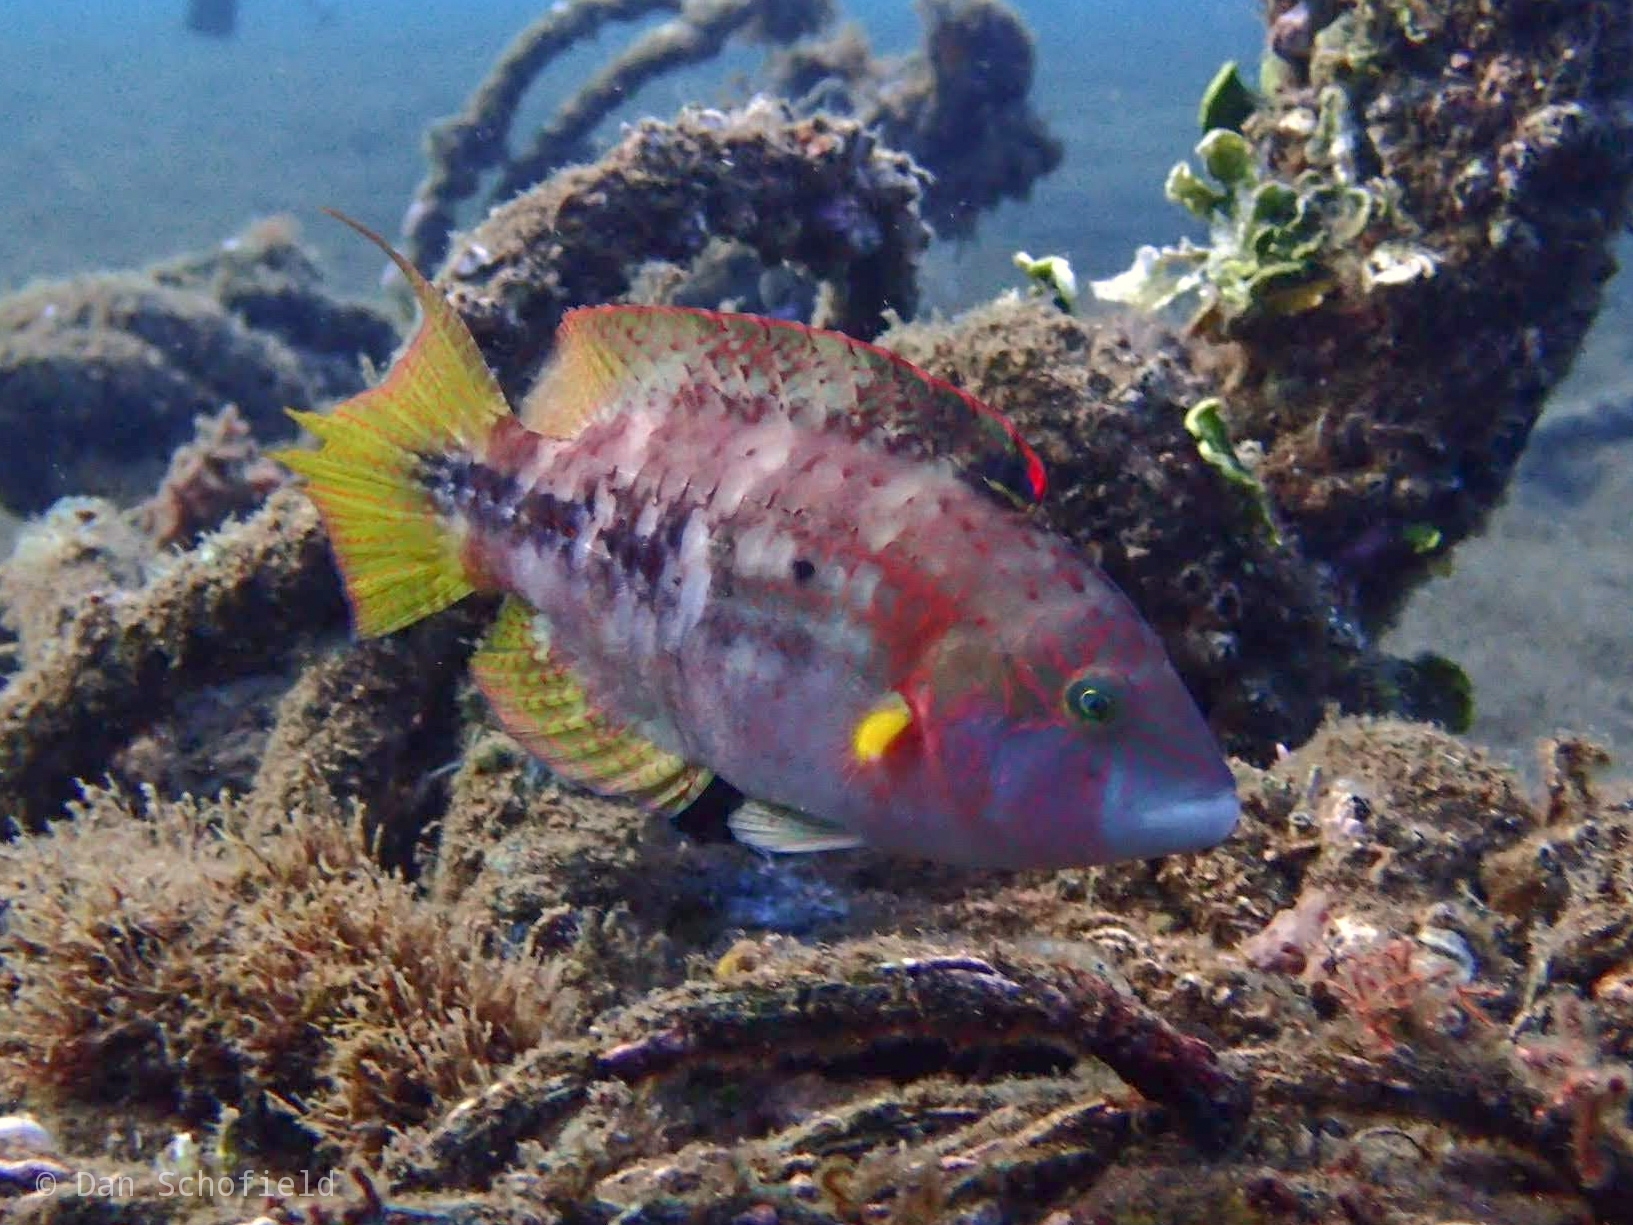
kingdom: Animalia
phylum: Chordata
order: Perciformes
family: Labridae
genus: Oxycheilinus
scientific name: Oxycheilinus bimaculatus
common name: Comettailed wrasse
